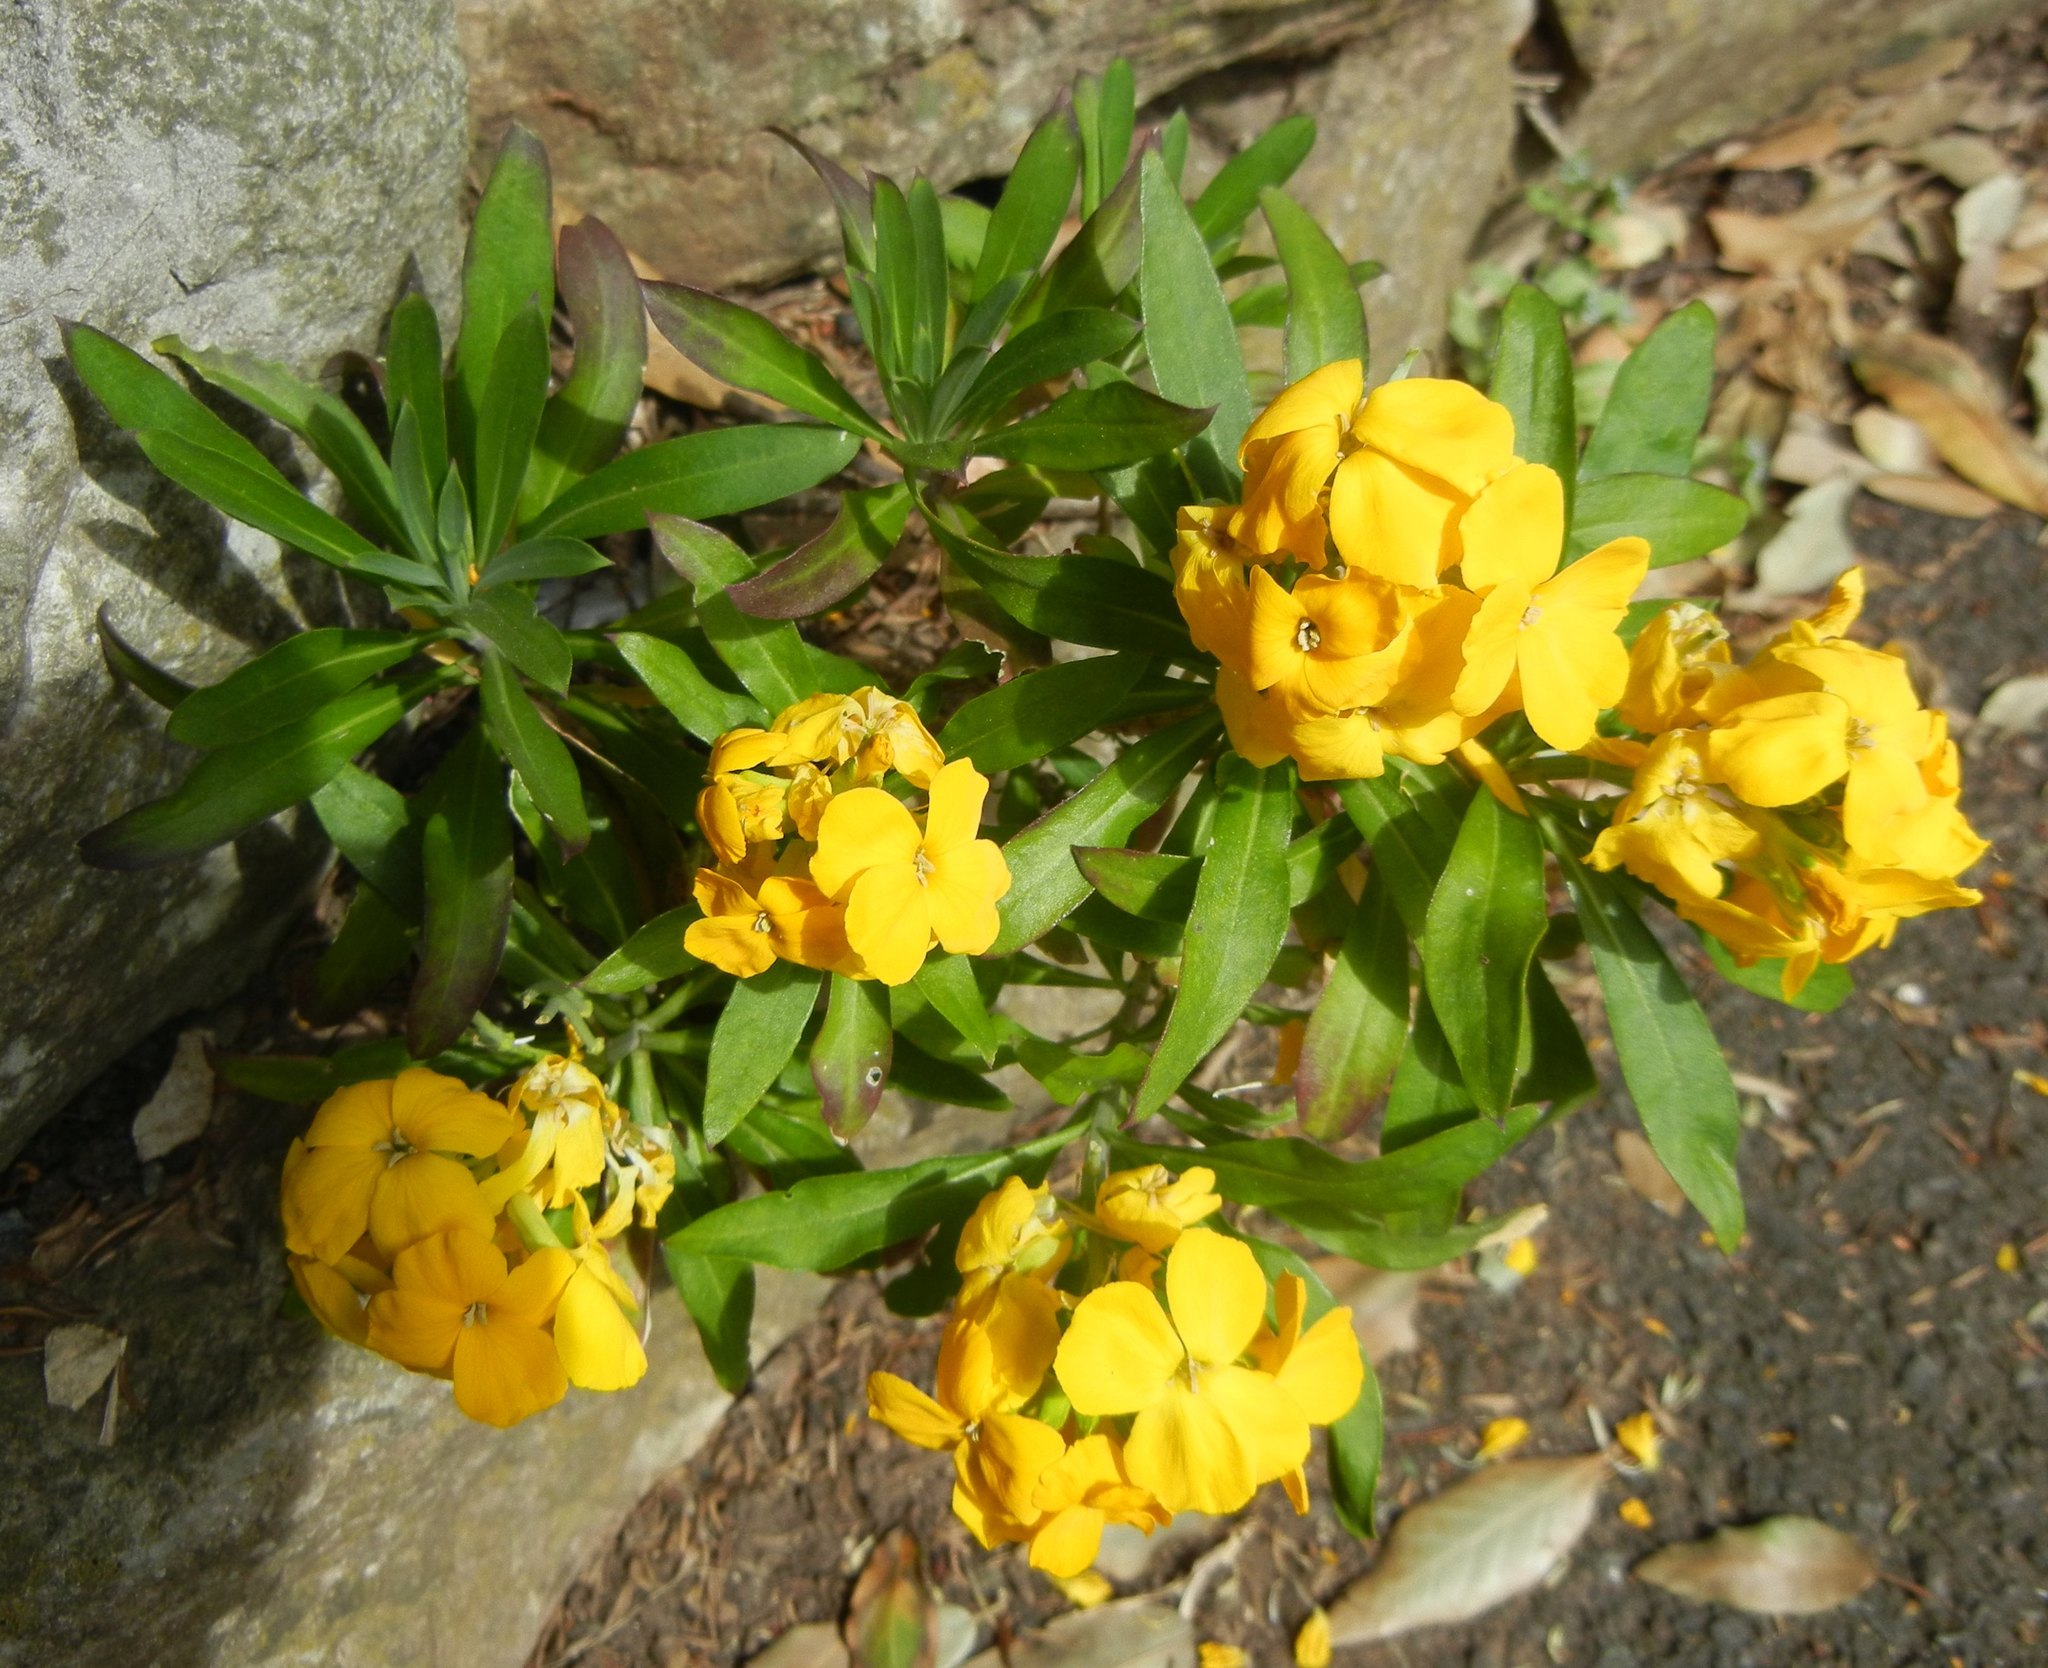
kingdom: Plantae
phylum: Tracheophyta
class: Magnoliopsida
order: Brassicales
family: Brassicaceae
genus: Erysimum
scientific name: Erysimum cheiri
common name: Wallflower
